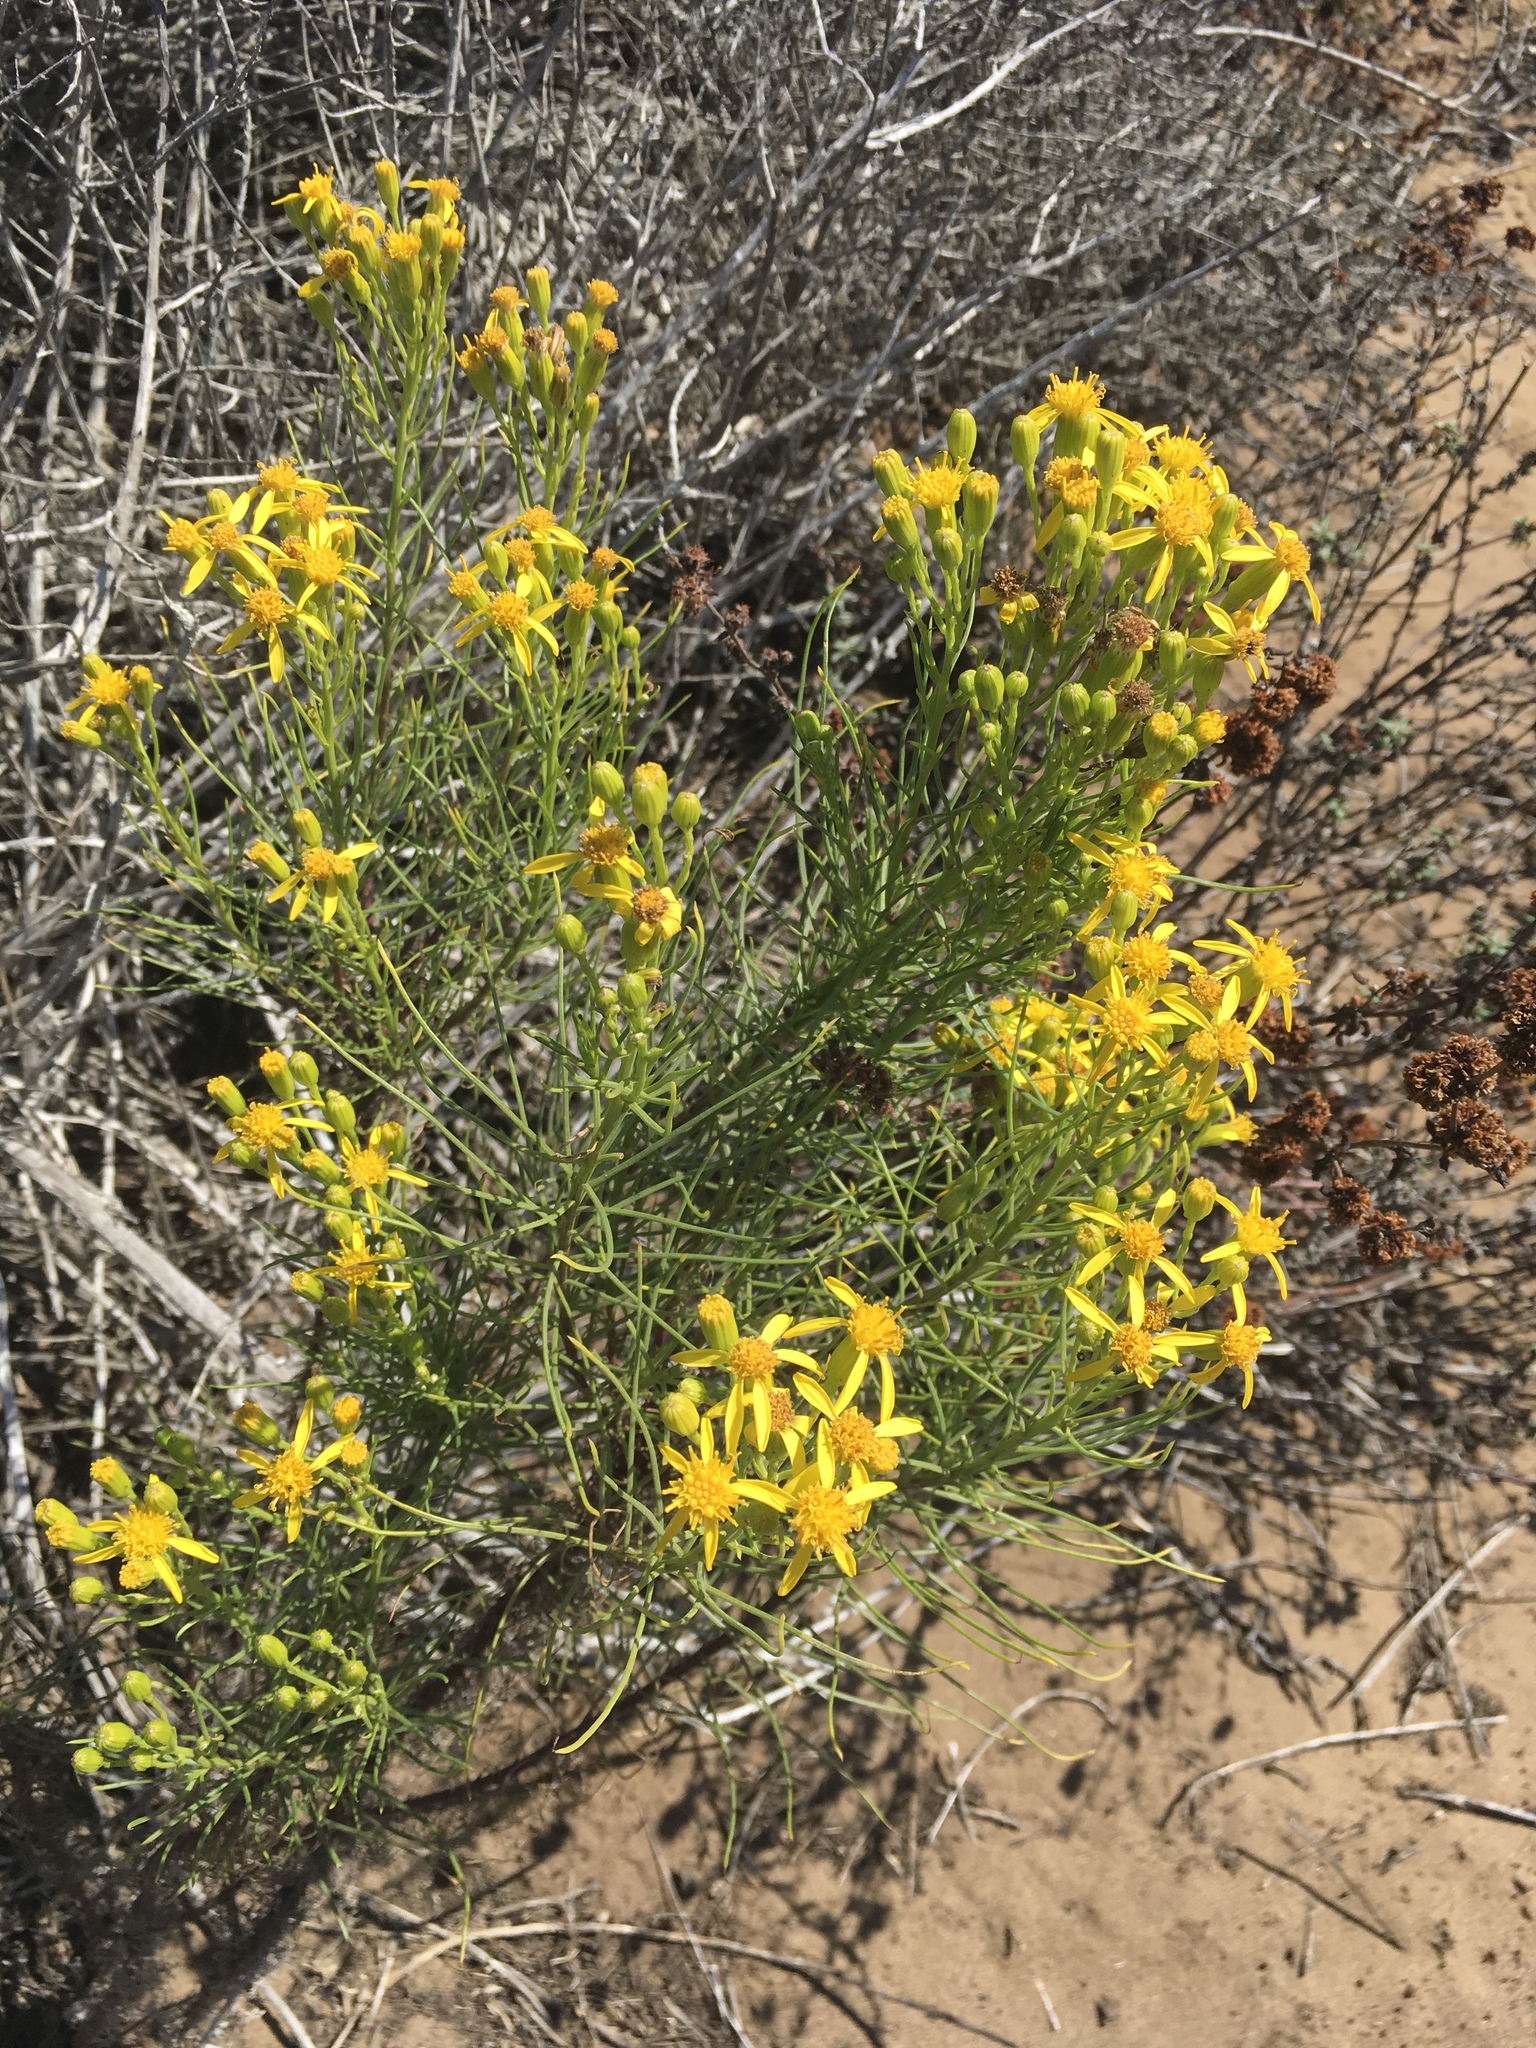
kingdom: Plantae
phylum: Tracheophyta
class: Magnoliopsida
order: Asterales
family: Asteraceae
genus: Senecio
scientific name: Senecio blochmaniae
